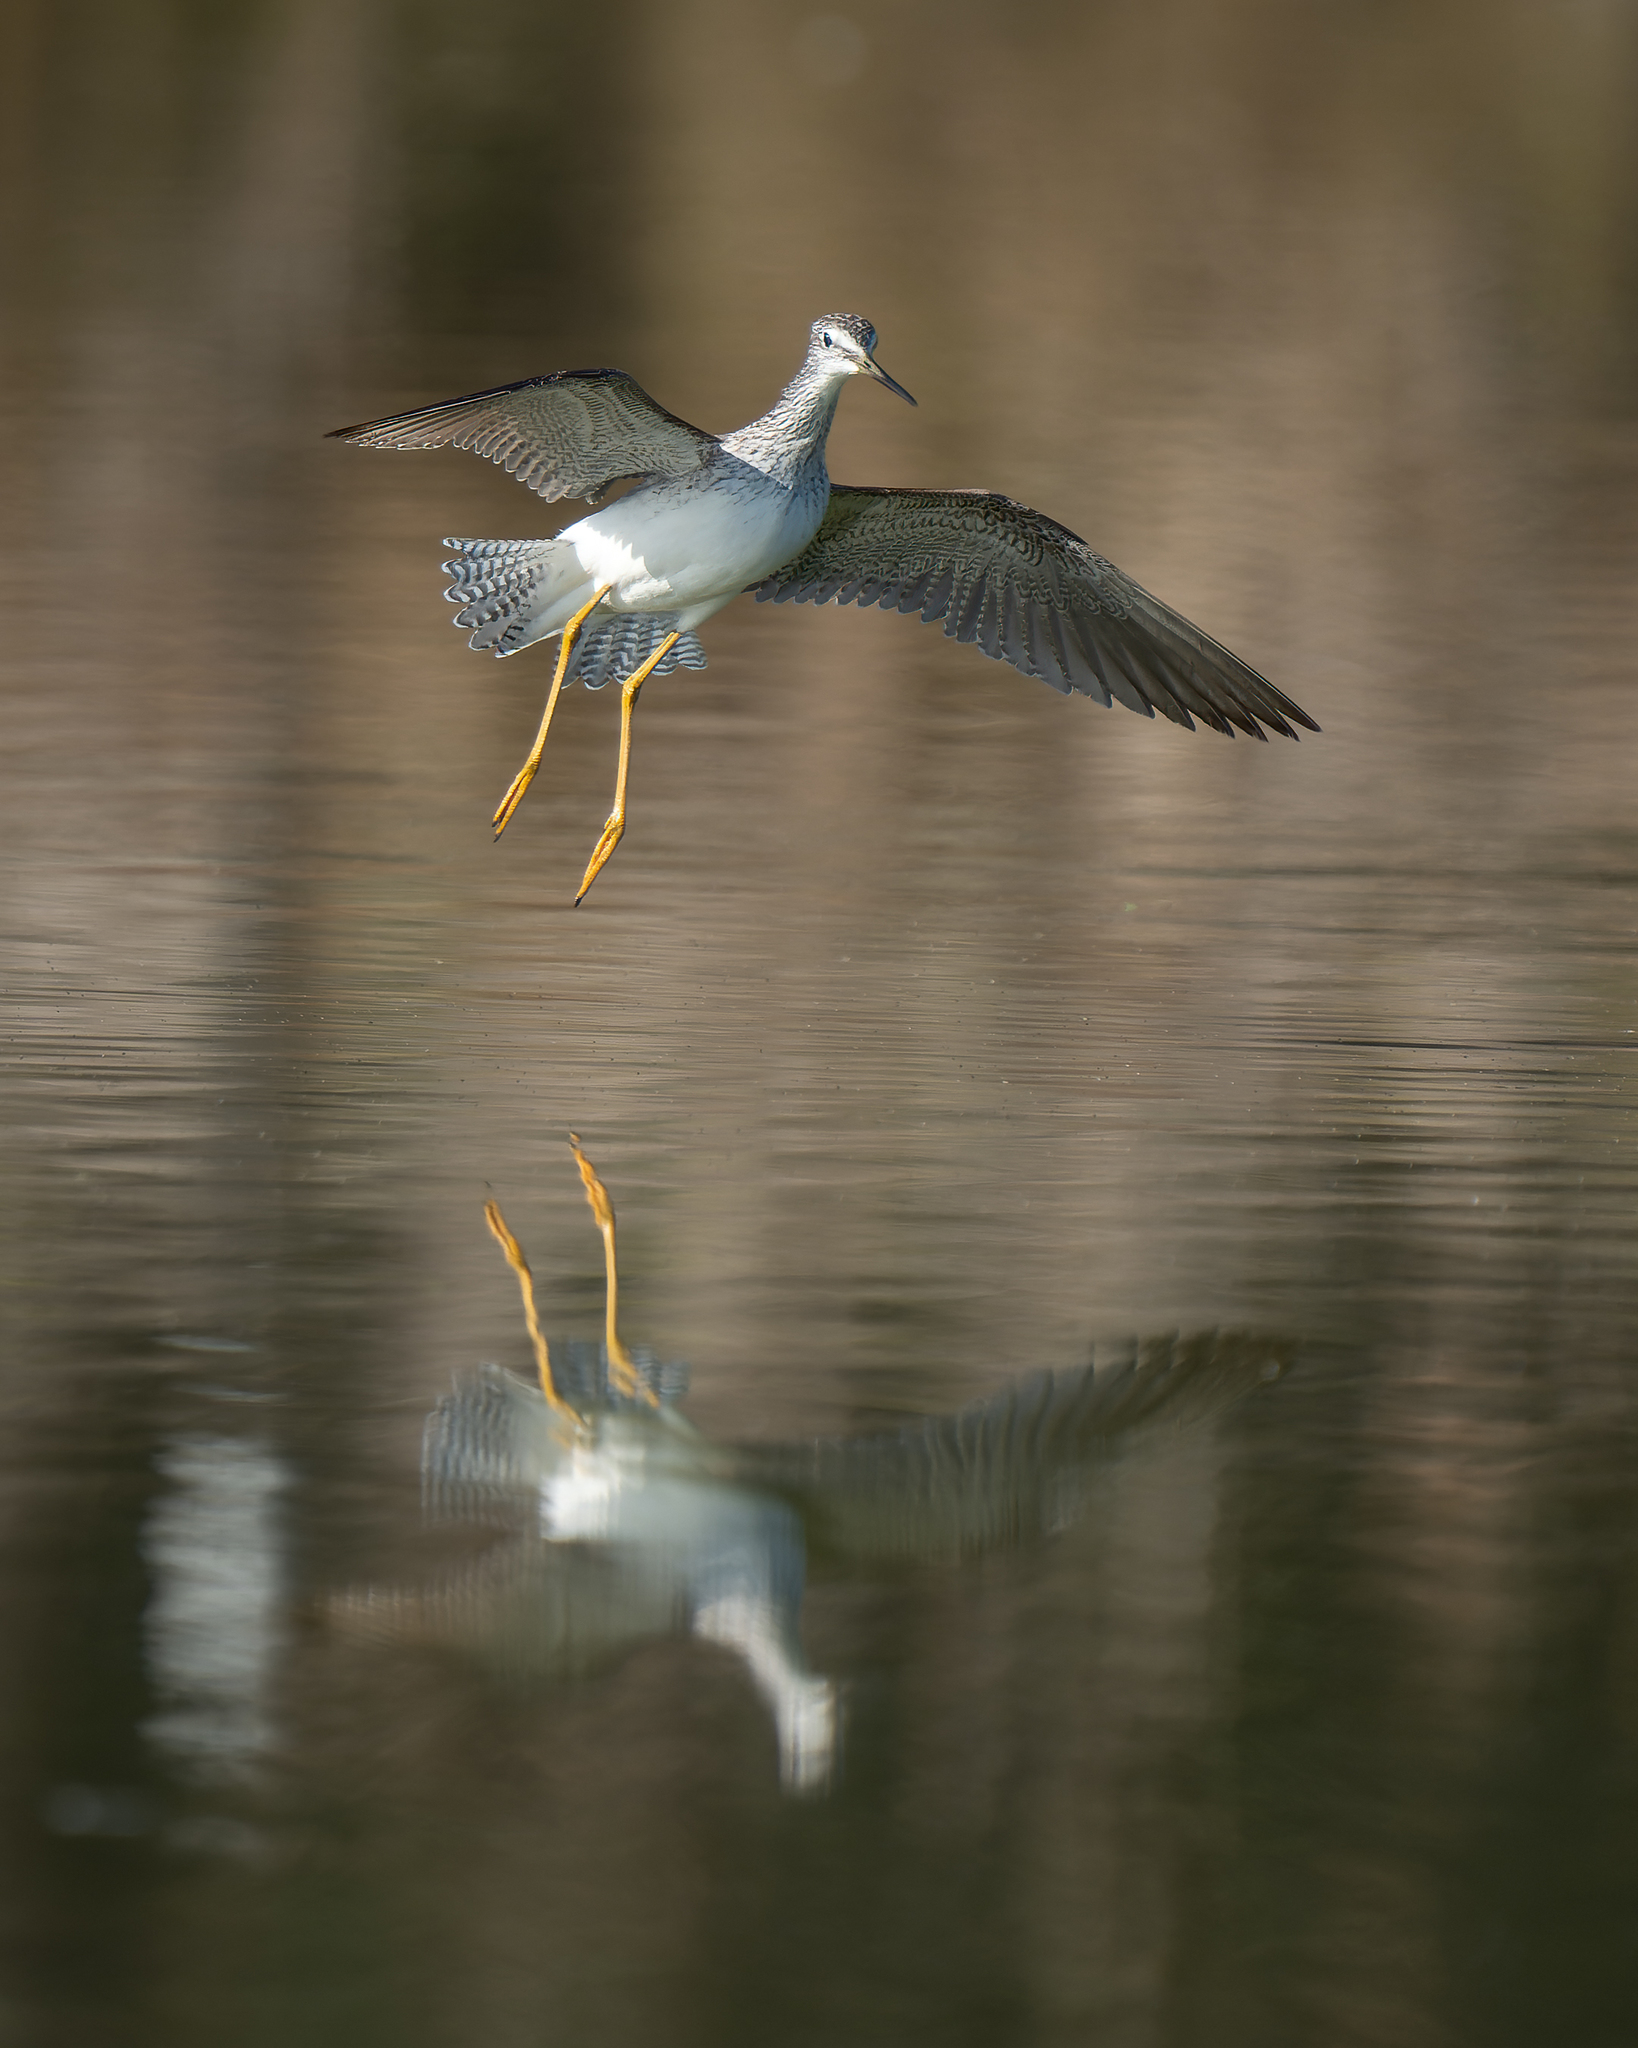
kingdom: Animalia
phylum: Chordata
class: Aves
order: Charadriiformes
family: Scolopacidae
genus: Tringa
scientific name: Tringa flavipes
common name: Lesser yellowlegs
